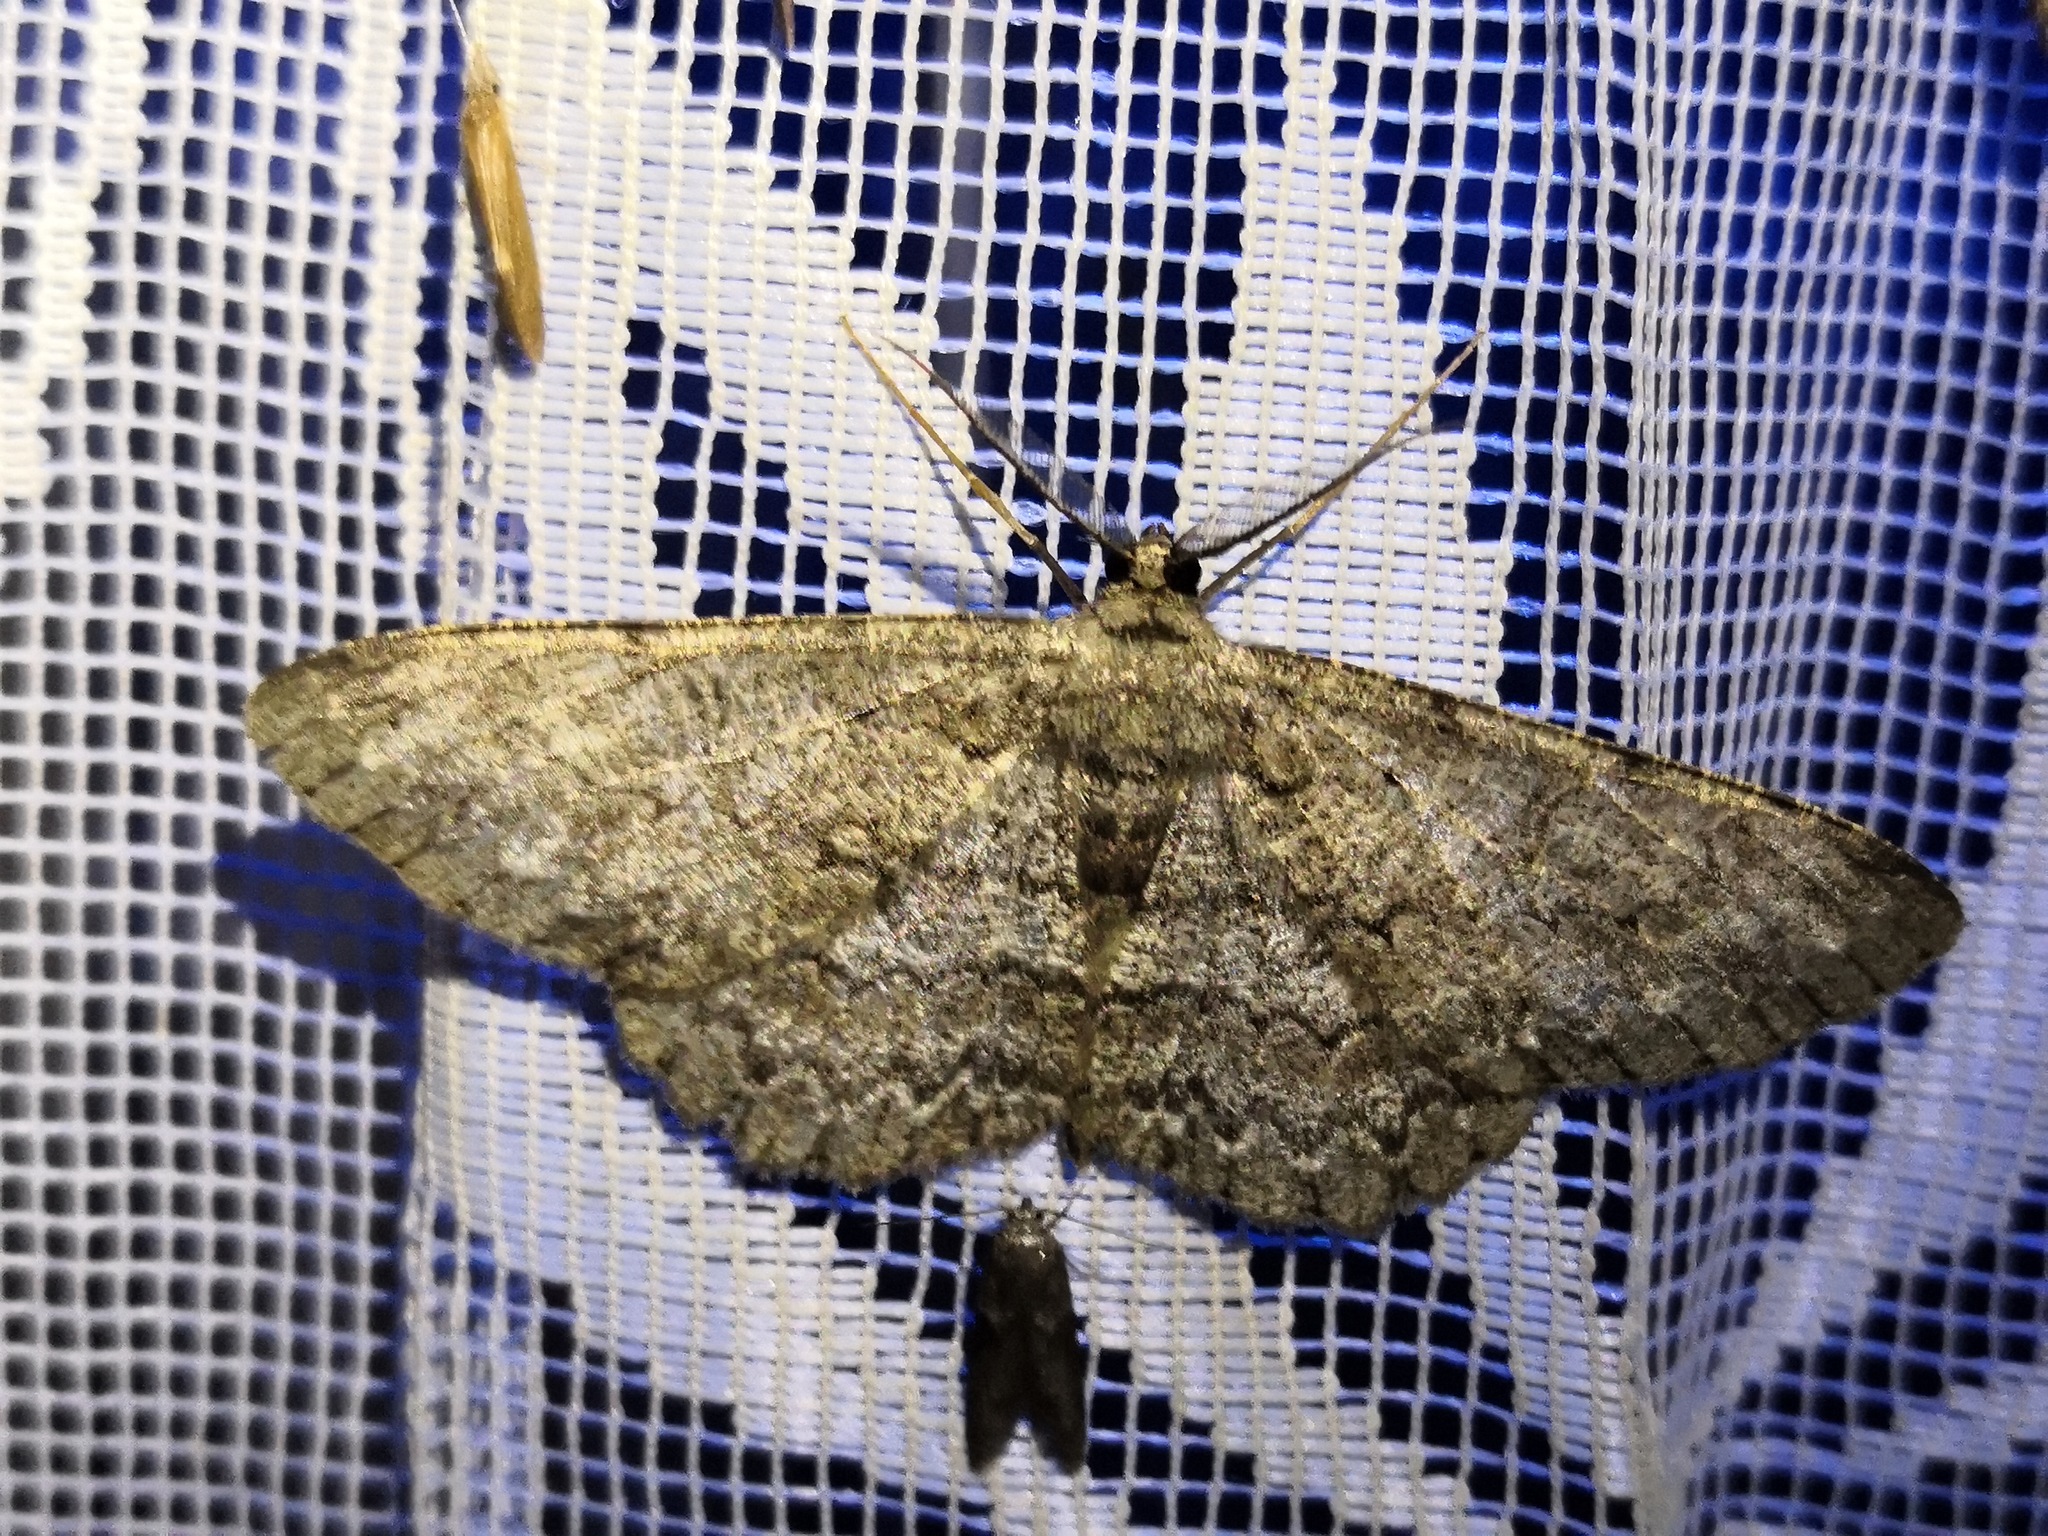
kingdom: Animalia
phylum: Arthropoda
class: Insecta
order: Lepidoptera
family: Geometridae
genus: Hypomecis
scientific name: Hypomecis punctinalis
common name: Pale oak beauty
